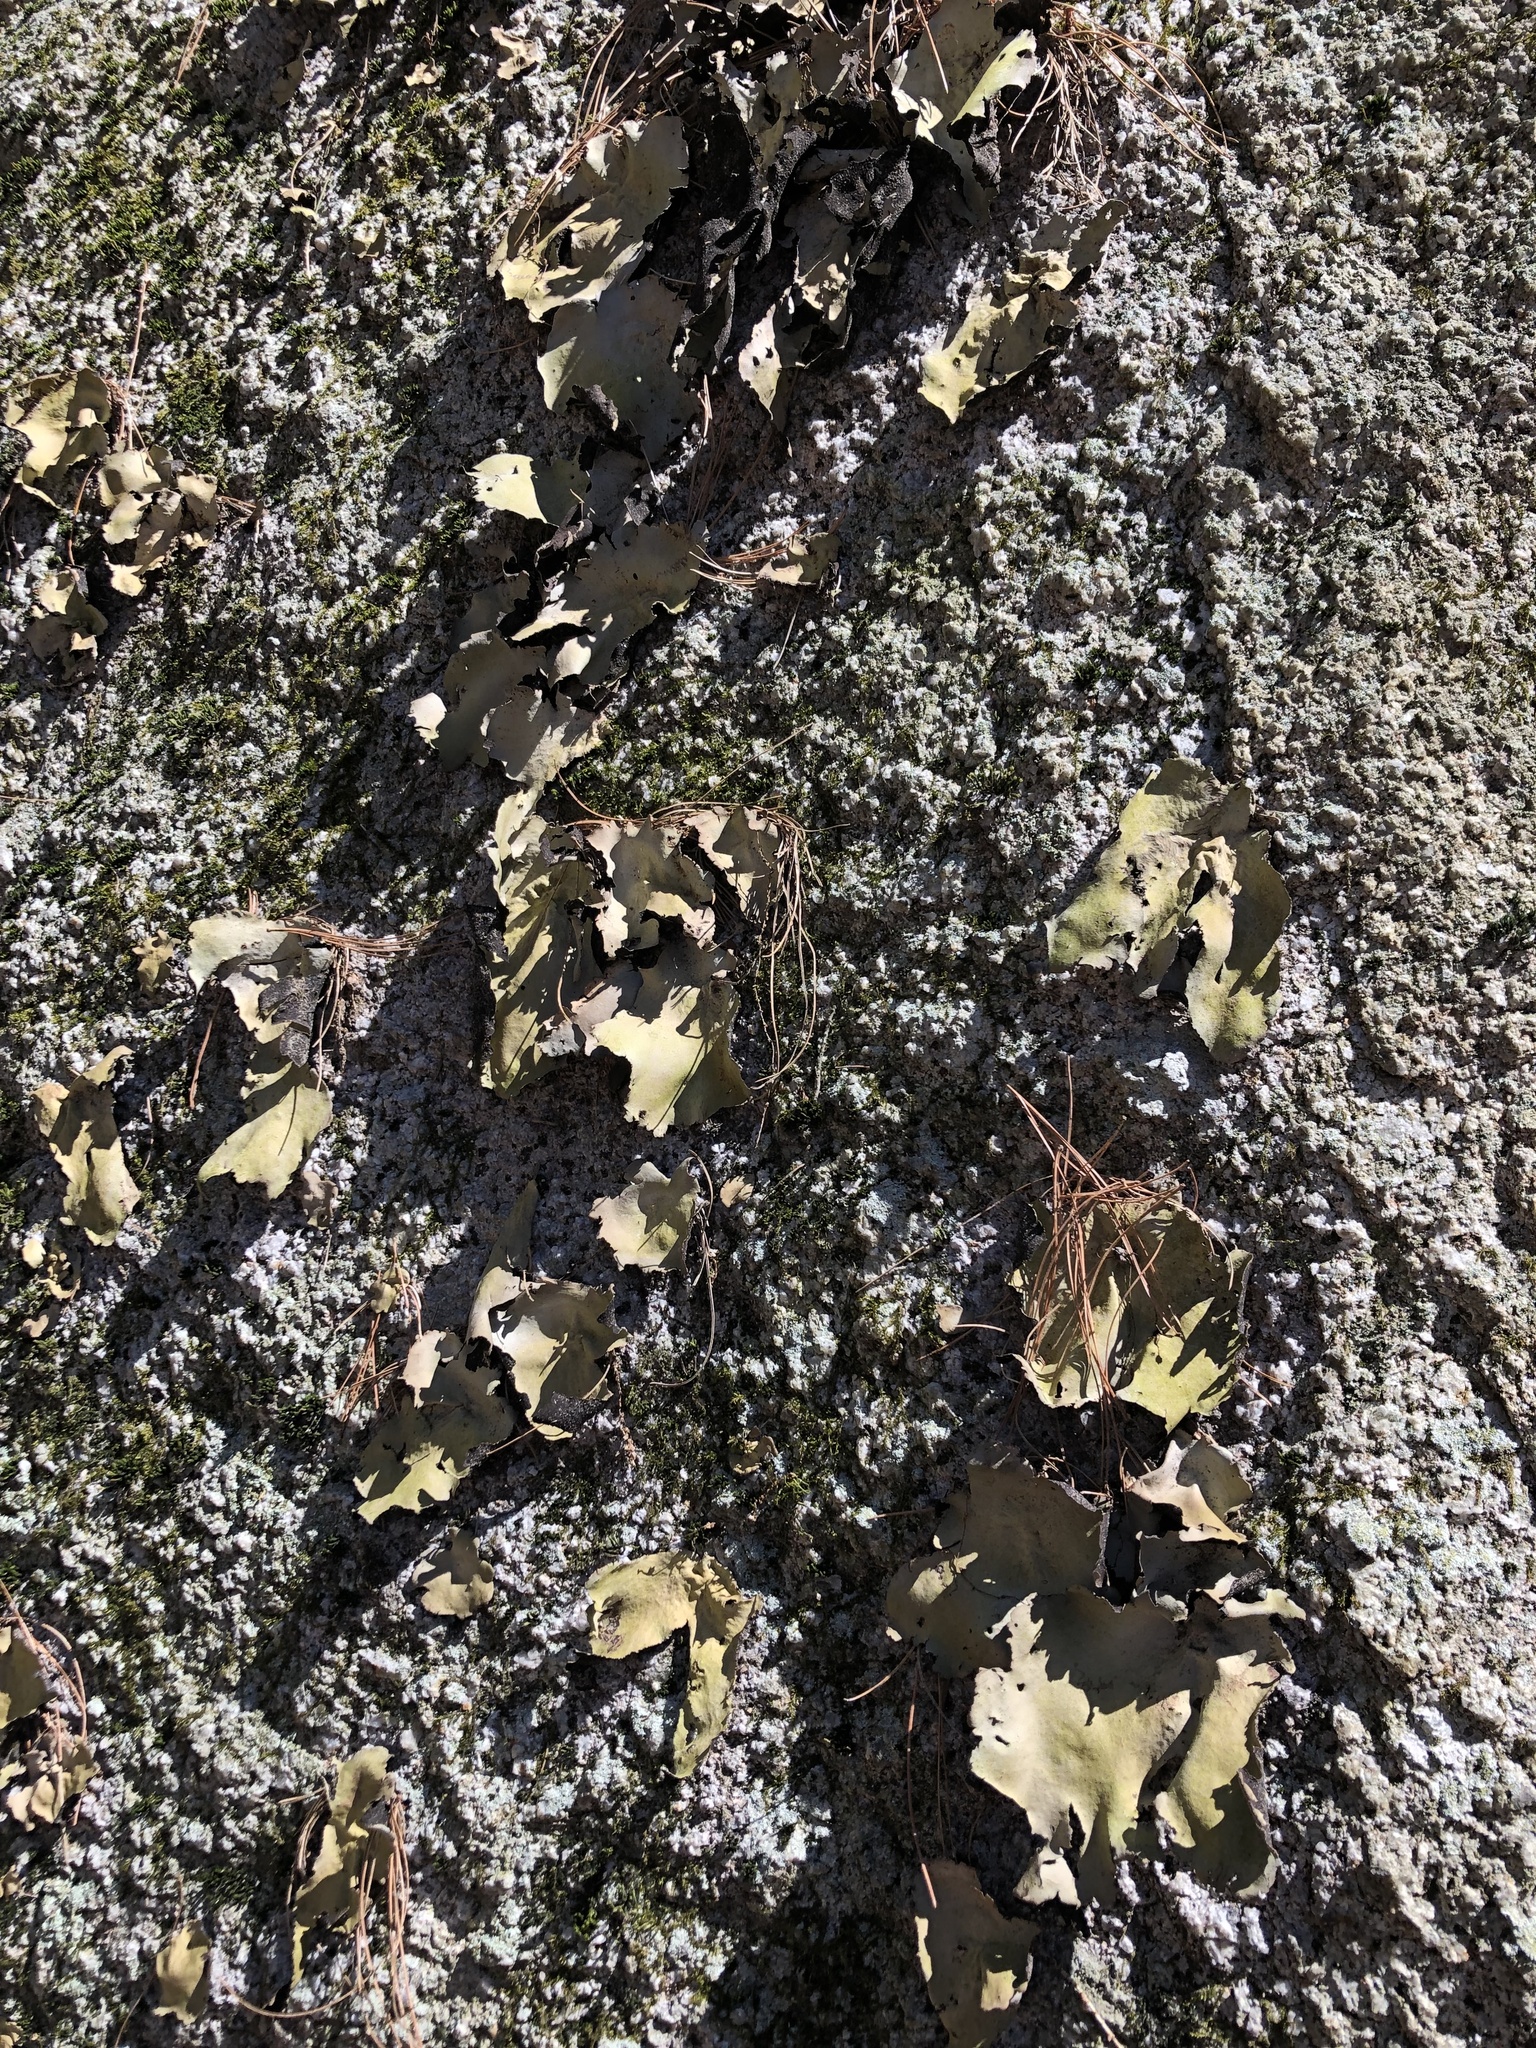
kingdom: Fungi
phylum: Ascomycota
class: Lecanoromycetes
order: Umbilicariales
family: Umbilicariaceae
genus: Umbilicaria
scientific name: Umbilicaria mammulata
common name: Smooth rock tripe
